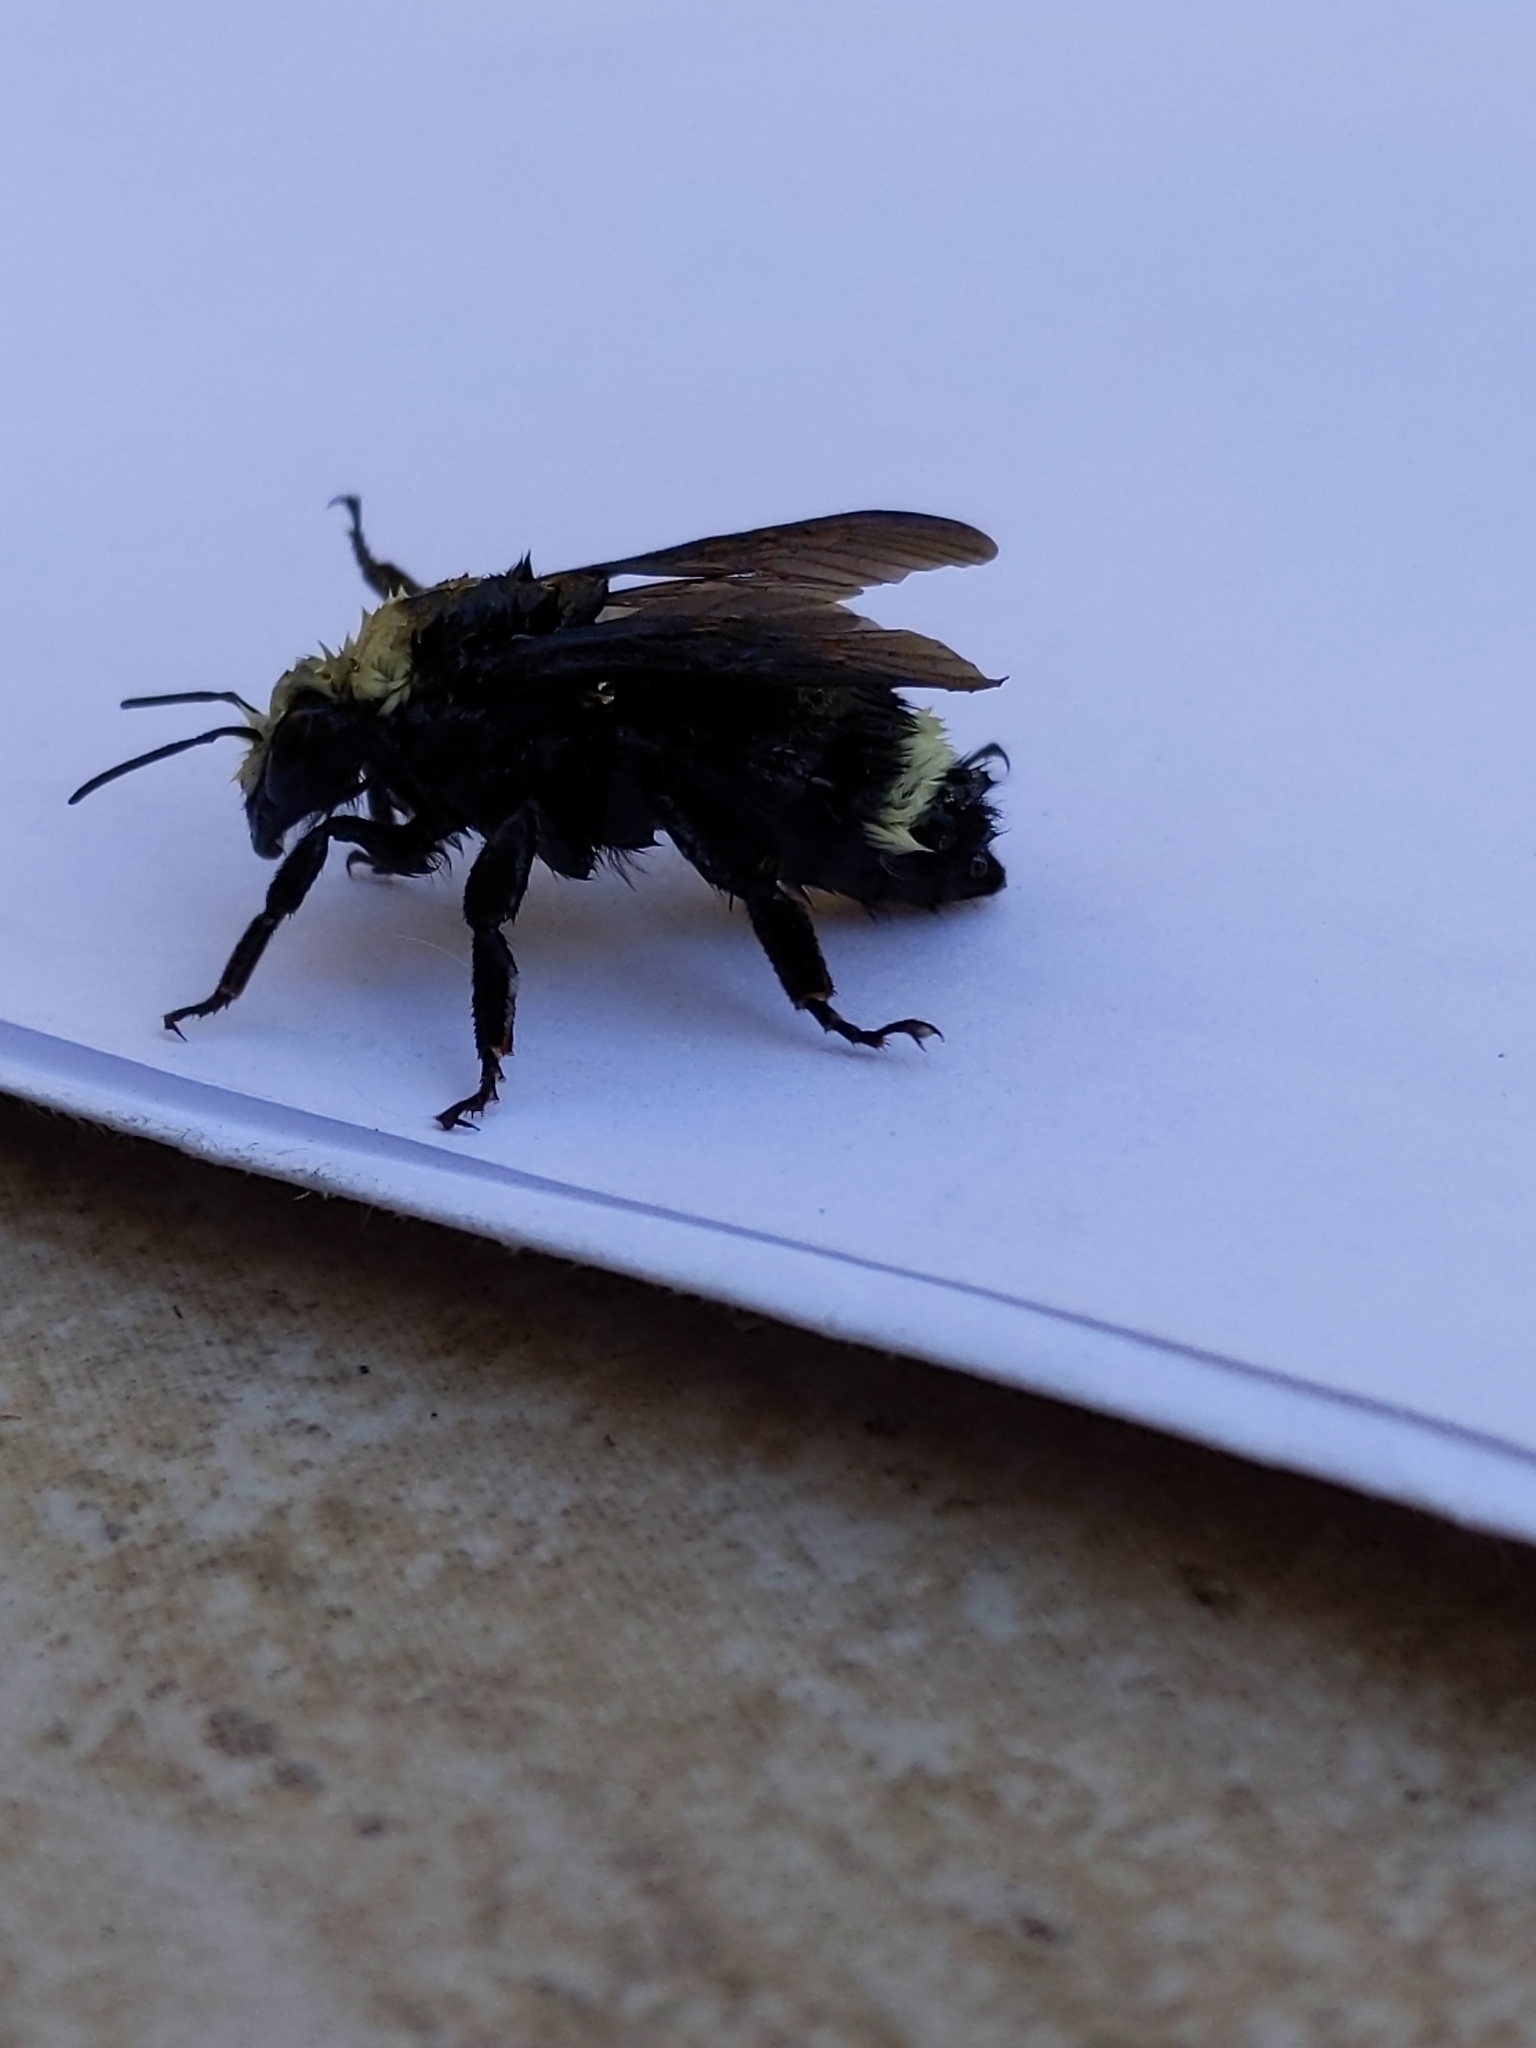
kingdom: Animalia
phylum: Arthropoda
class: Insecta
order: Hymenoptera
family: Apidae
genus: Bombus
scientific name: Bombus vosnesenskii
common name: Vosnesensky bumble bee
